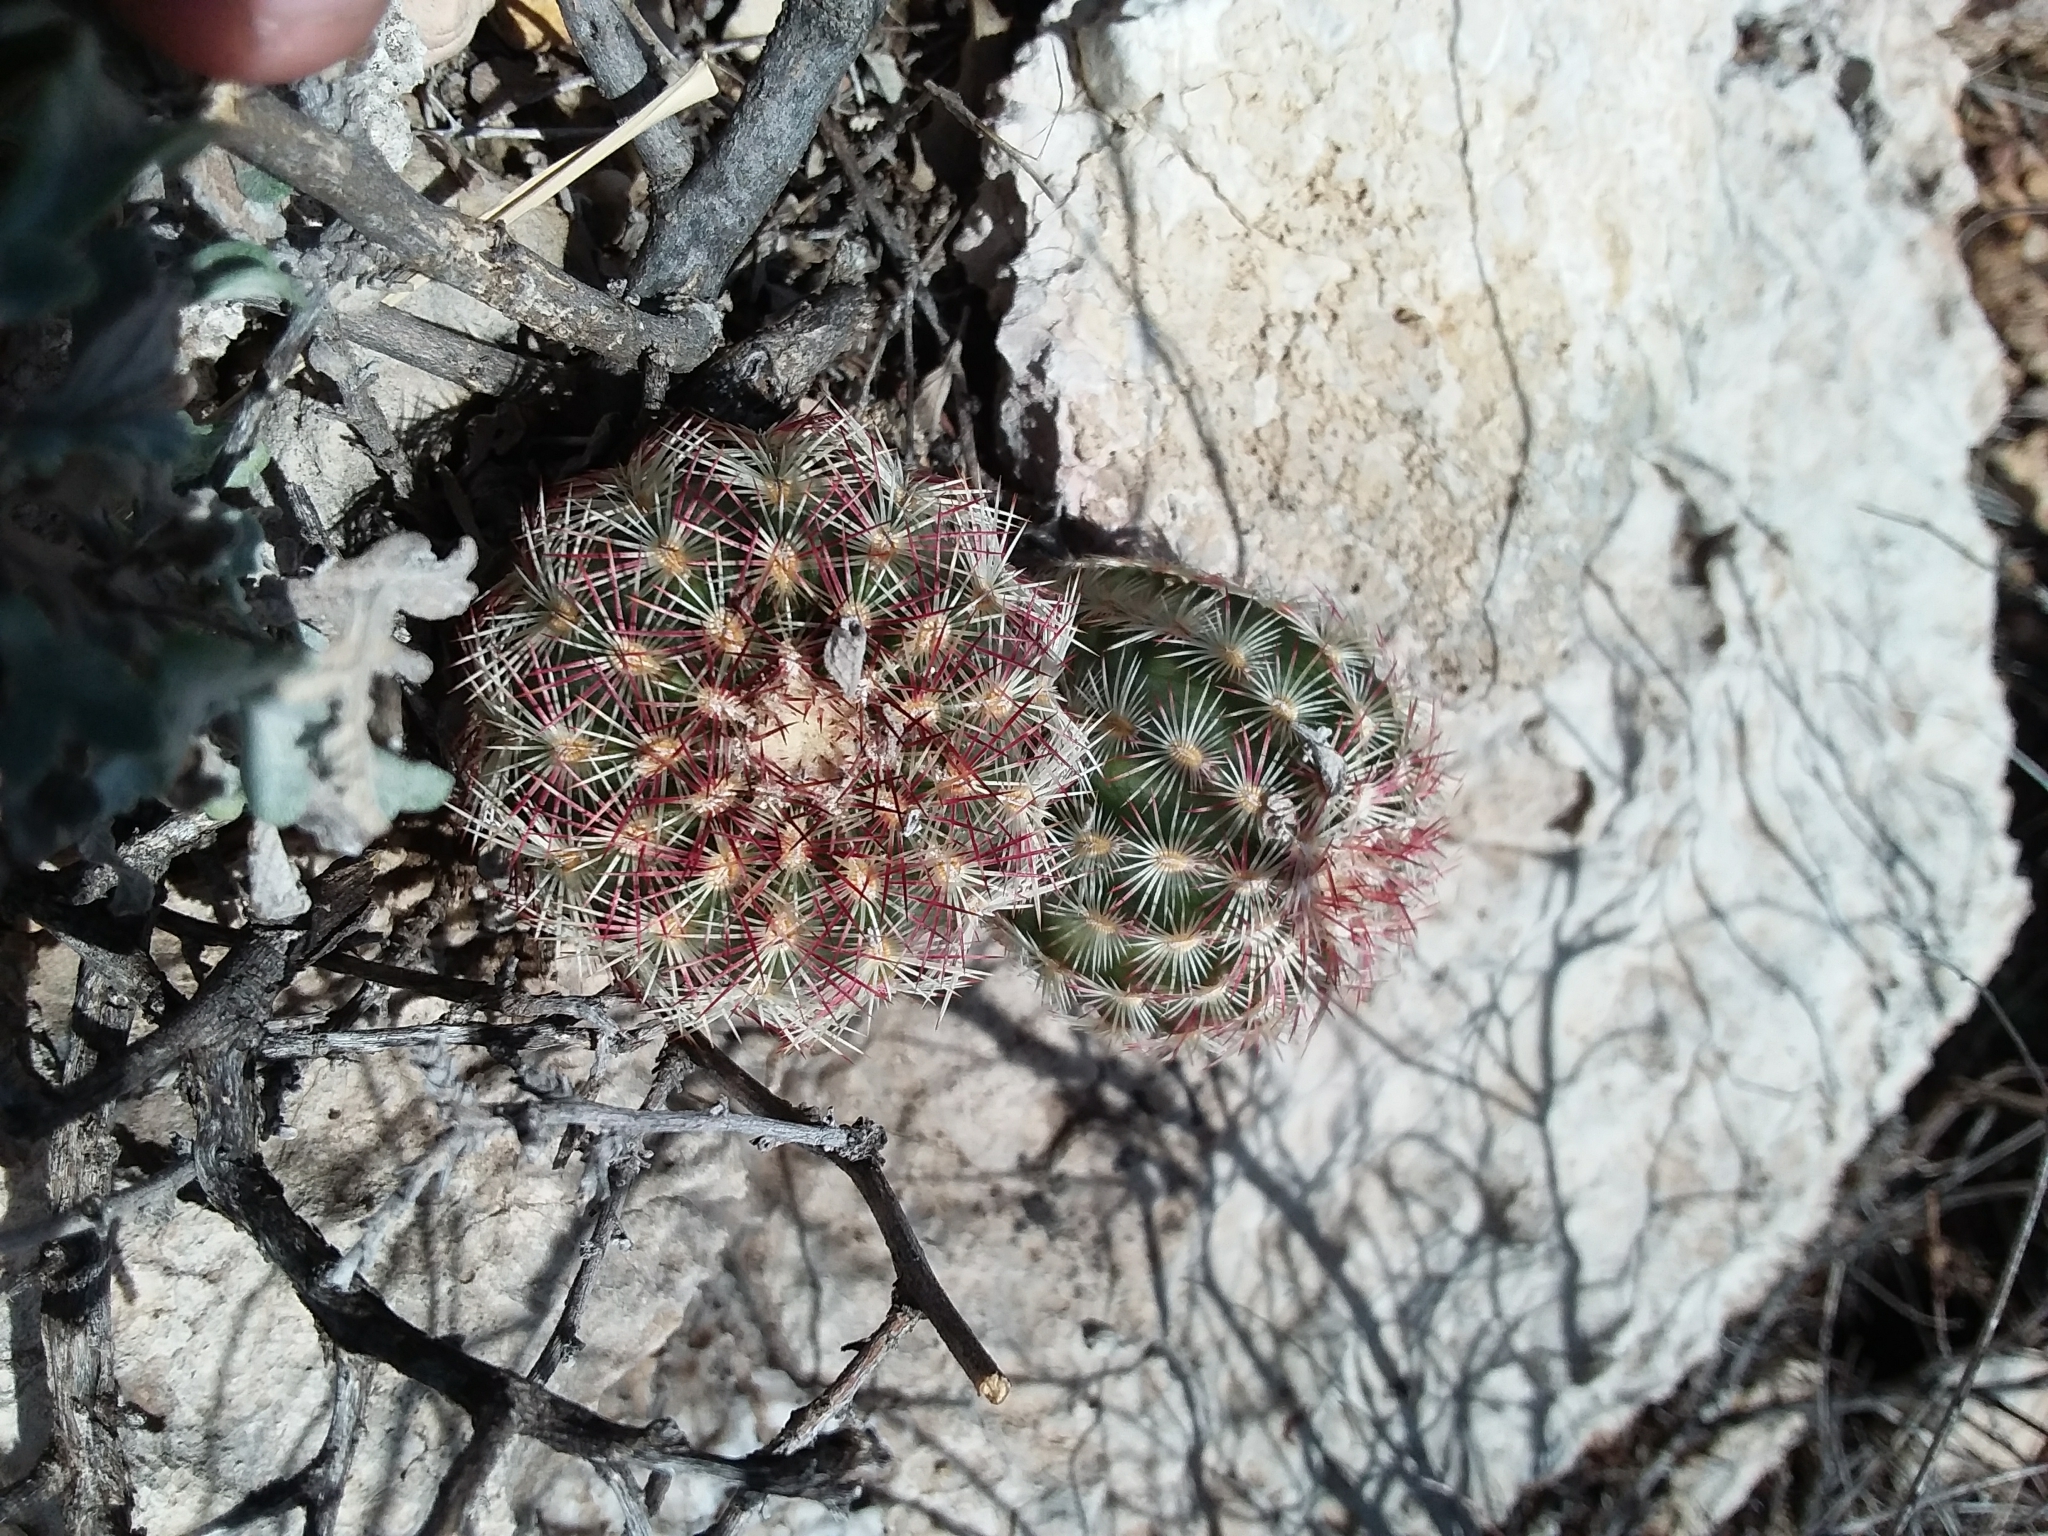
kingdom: Plantae
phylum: Tracheophyta
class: Magnoliopsida
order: Caryophyllales
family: Cactaceae
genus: Echinocereus
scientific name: Echinocereus viridiflorus
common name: Nylon hedgehog cactus
